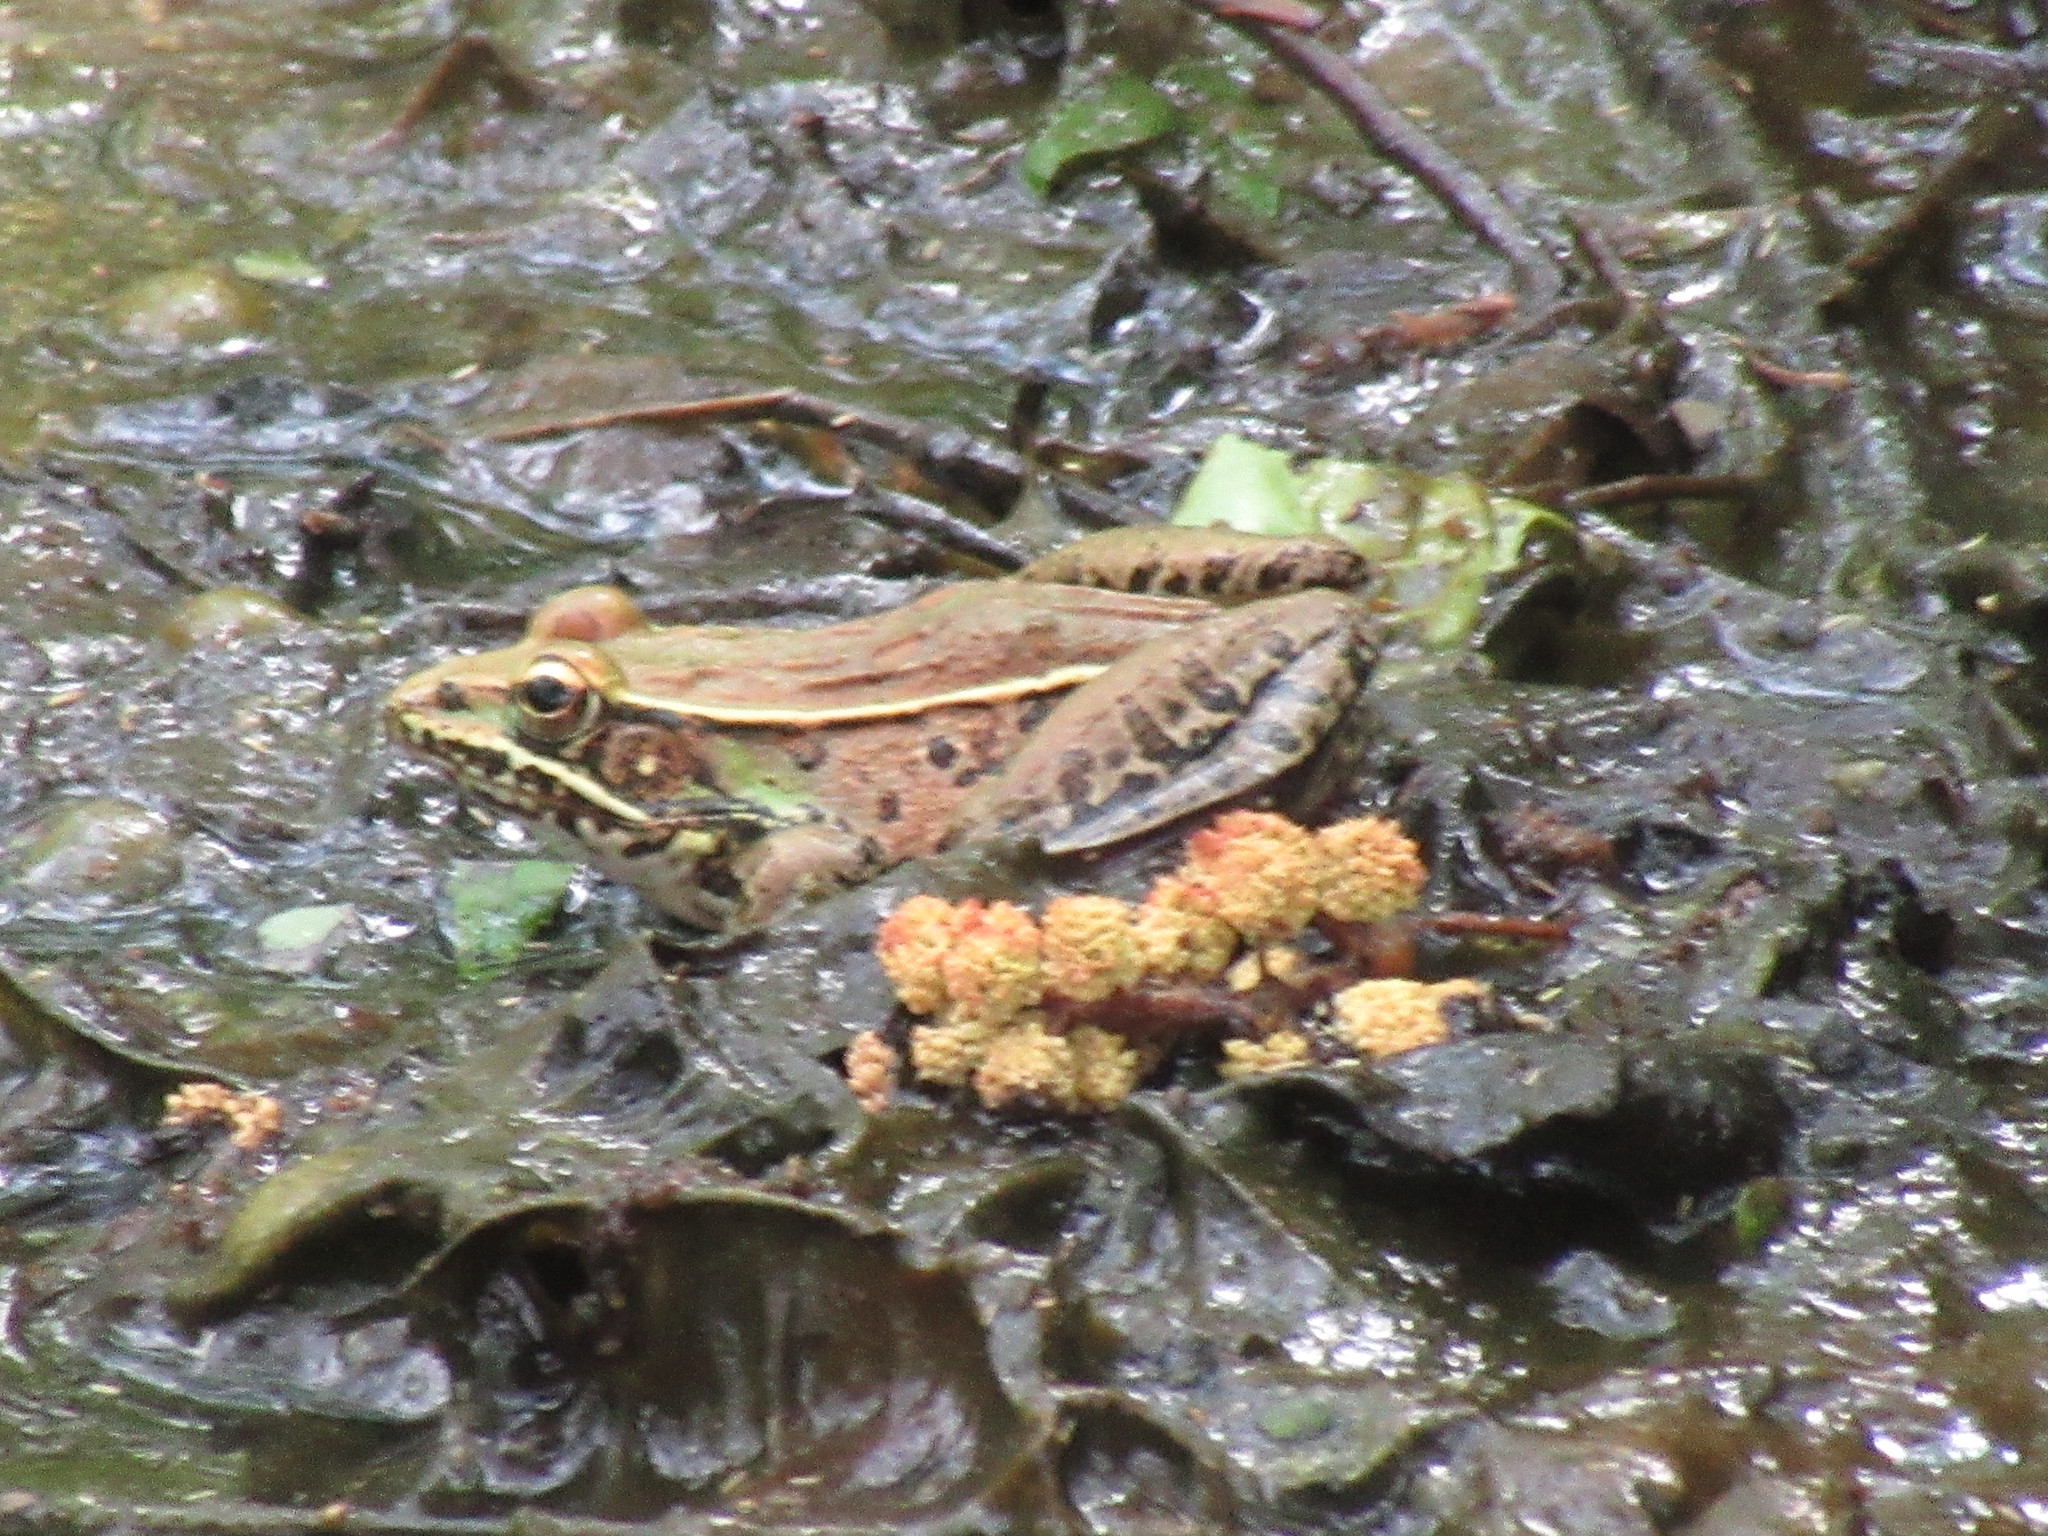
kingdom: Animalia
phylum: Chordata
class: Amphibia
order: Anura
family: Ranidae
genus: Lithobates
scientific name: Lithobates sphenocephalus
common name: Southern leopard frog
